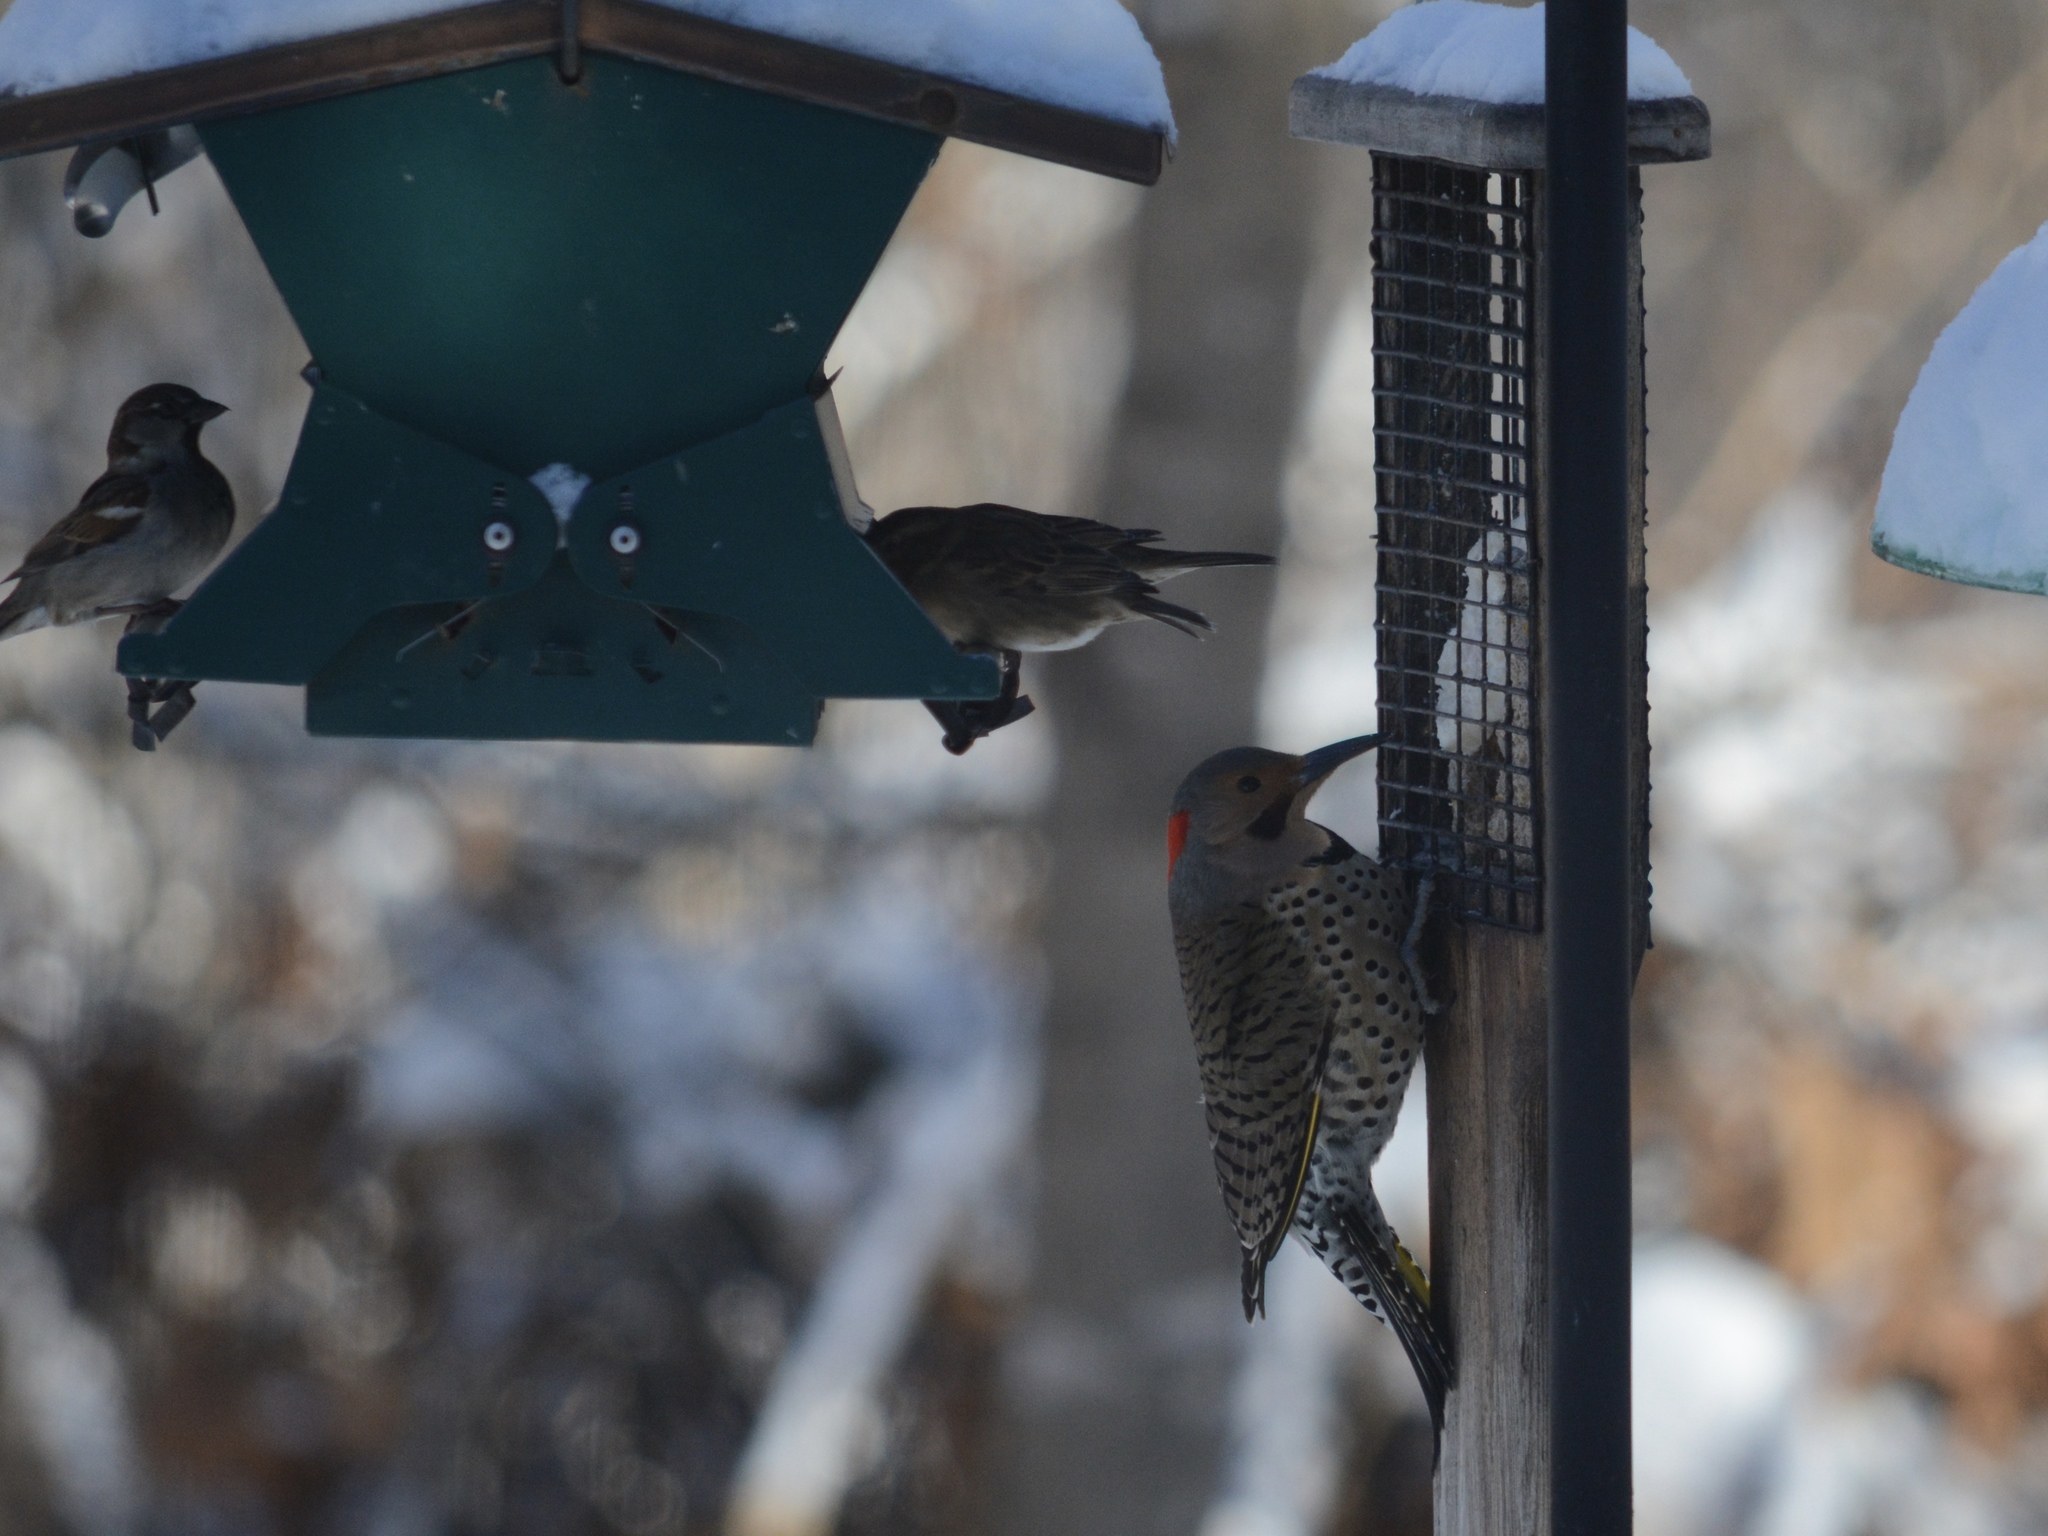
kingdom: Animalia
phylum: Chordata
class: Aves
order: Piciformes
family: Picidae
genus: Colaptes
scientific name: Colaptes auratus
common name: Northern flicker
